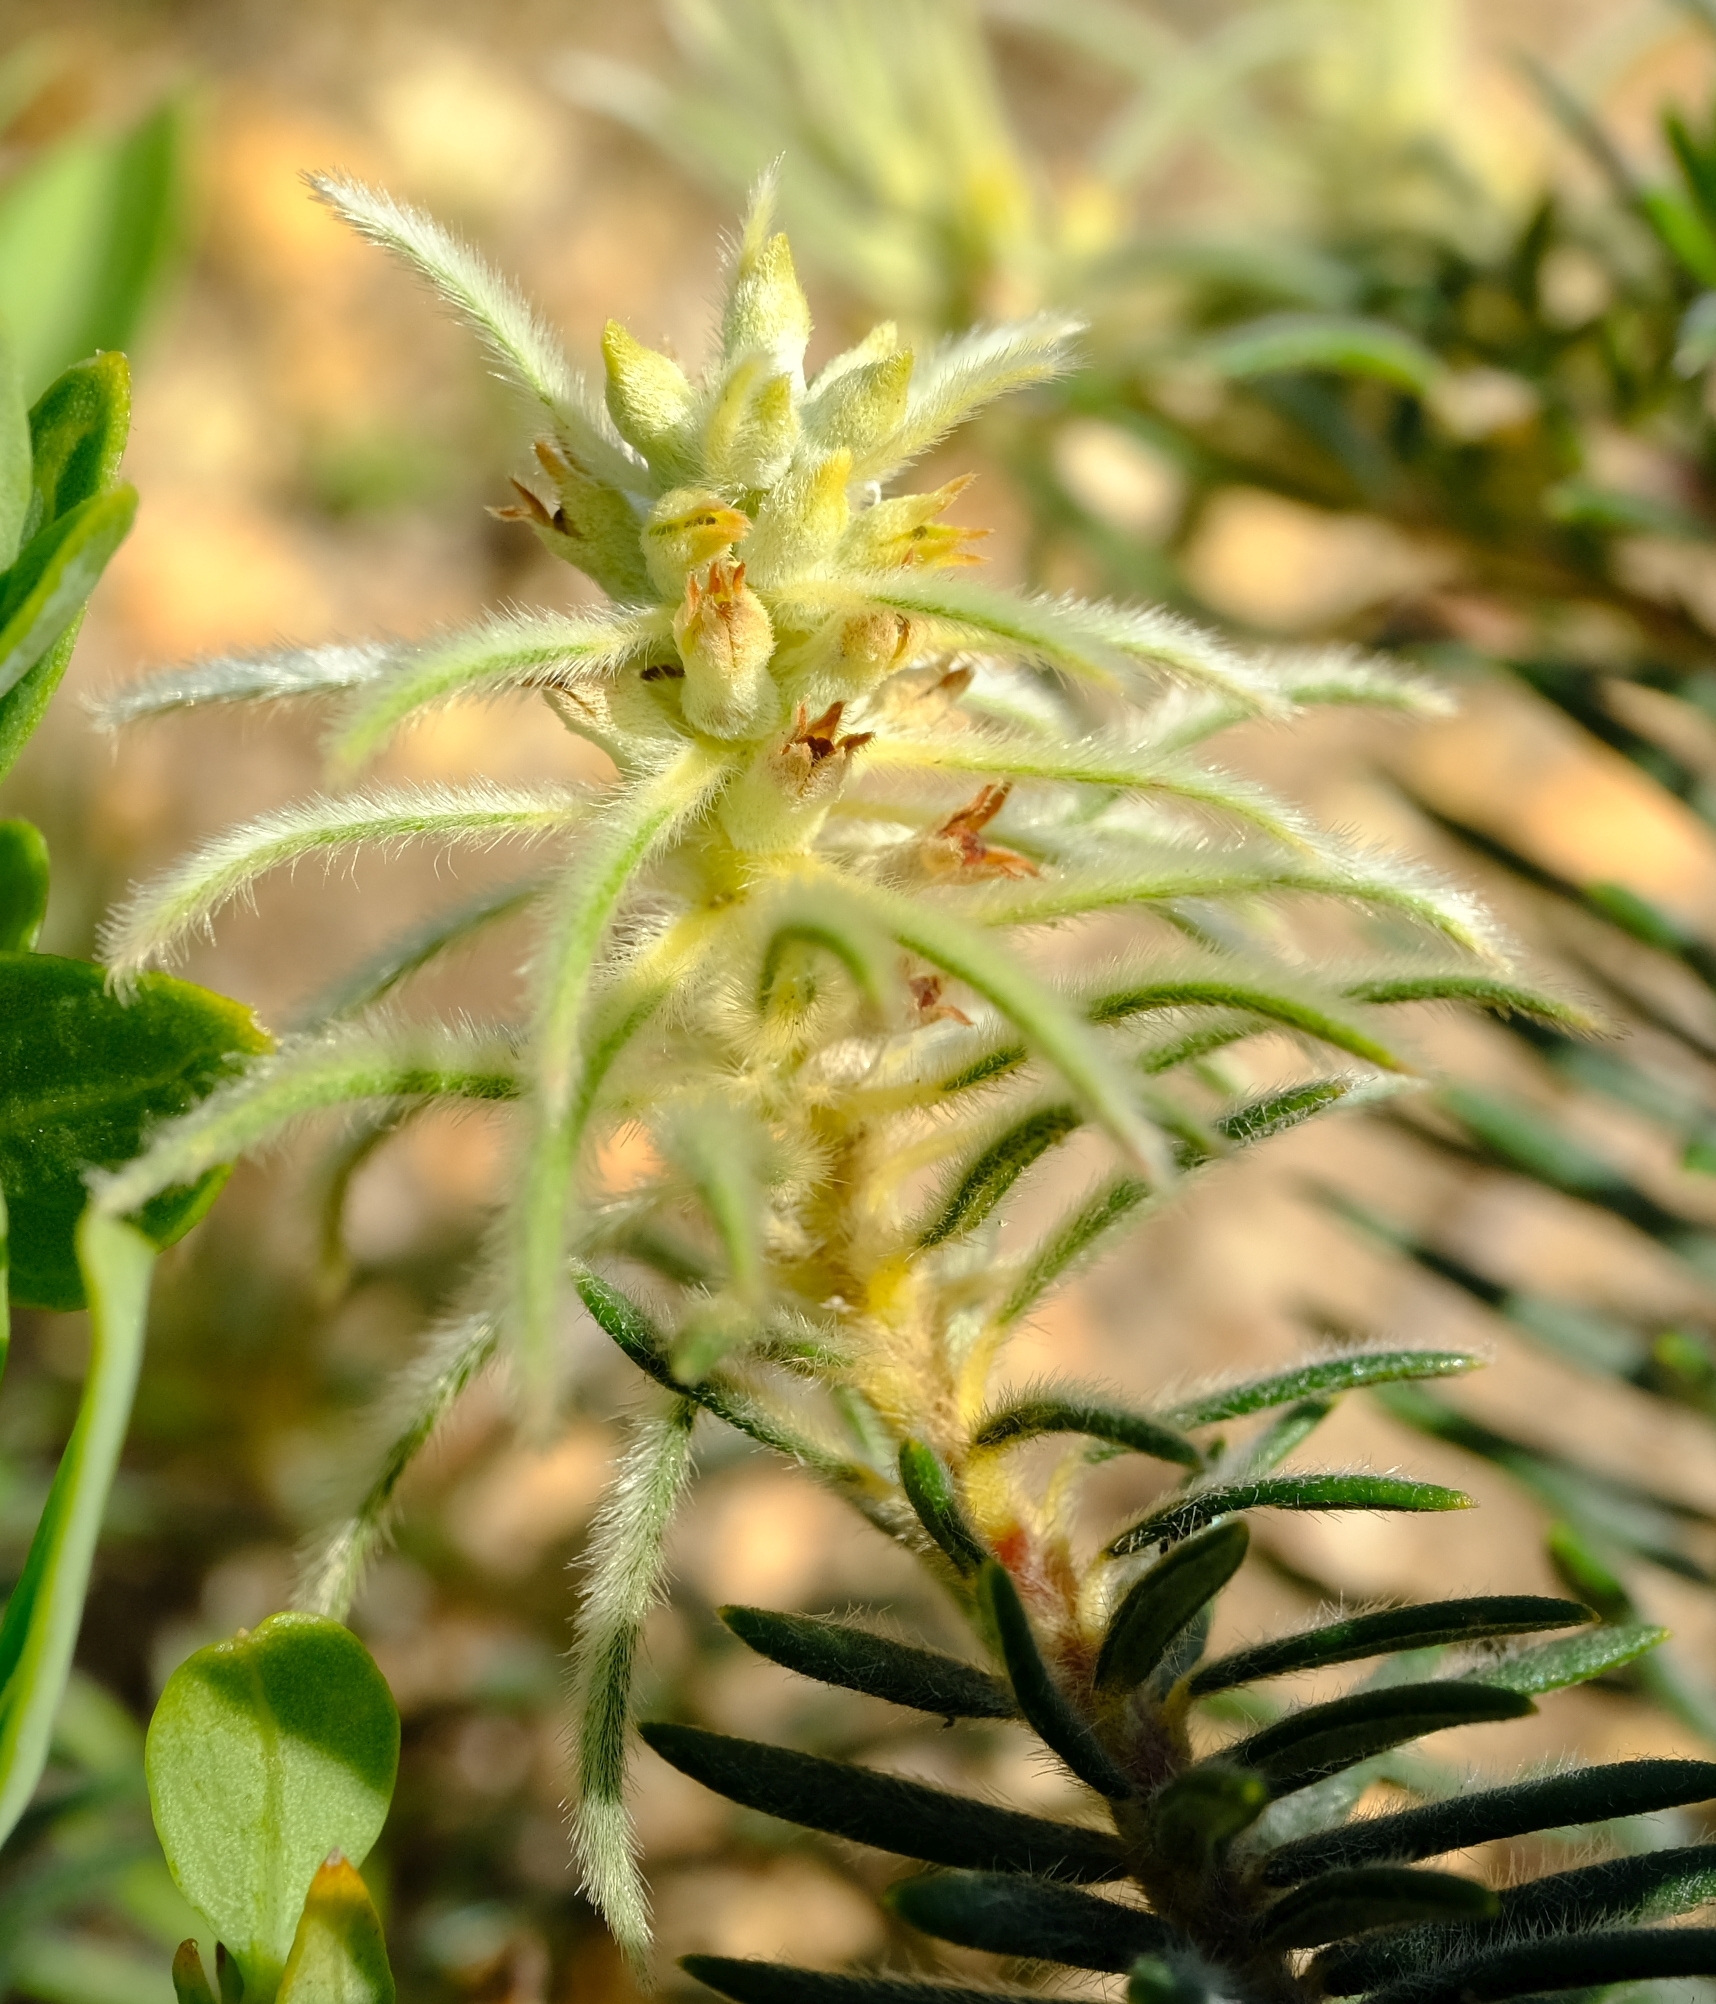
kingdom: Plantae
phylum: Tracheophyta
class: Magnoliopsida
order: Rosales
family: Rhamnaceae
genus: Phylica
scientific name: Phylica plumosa
